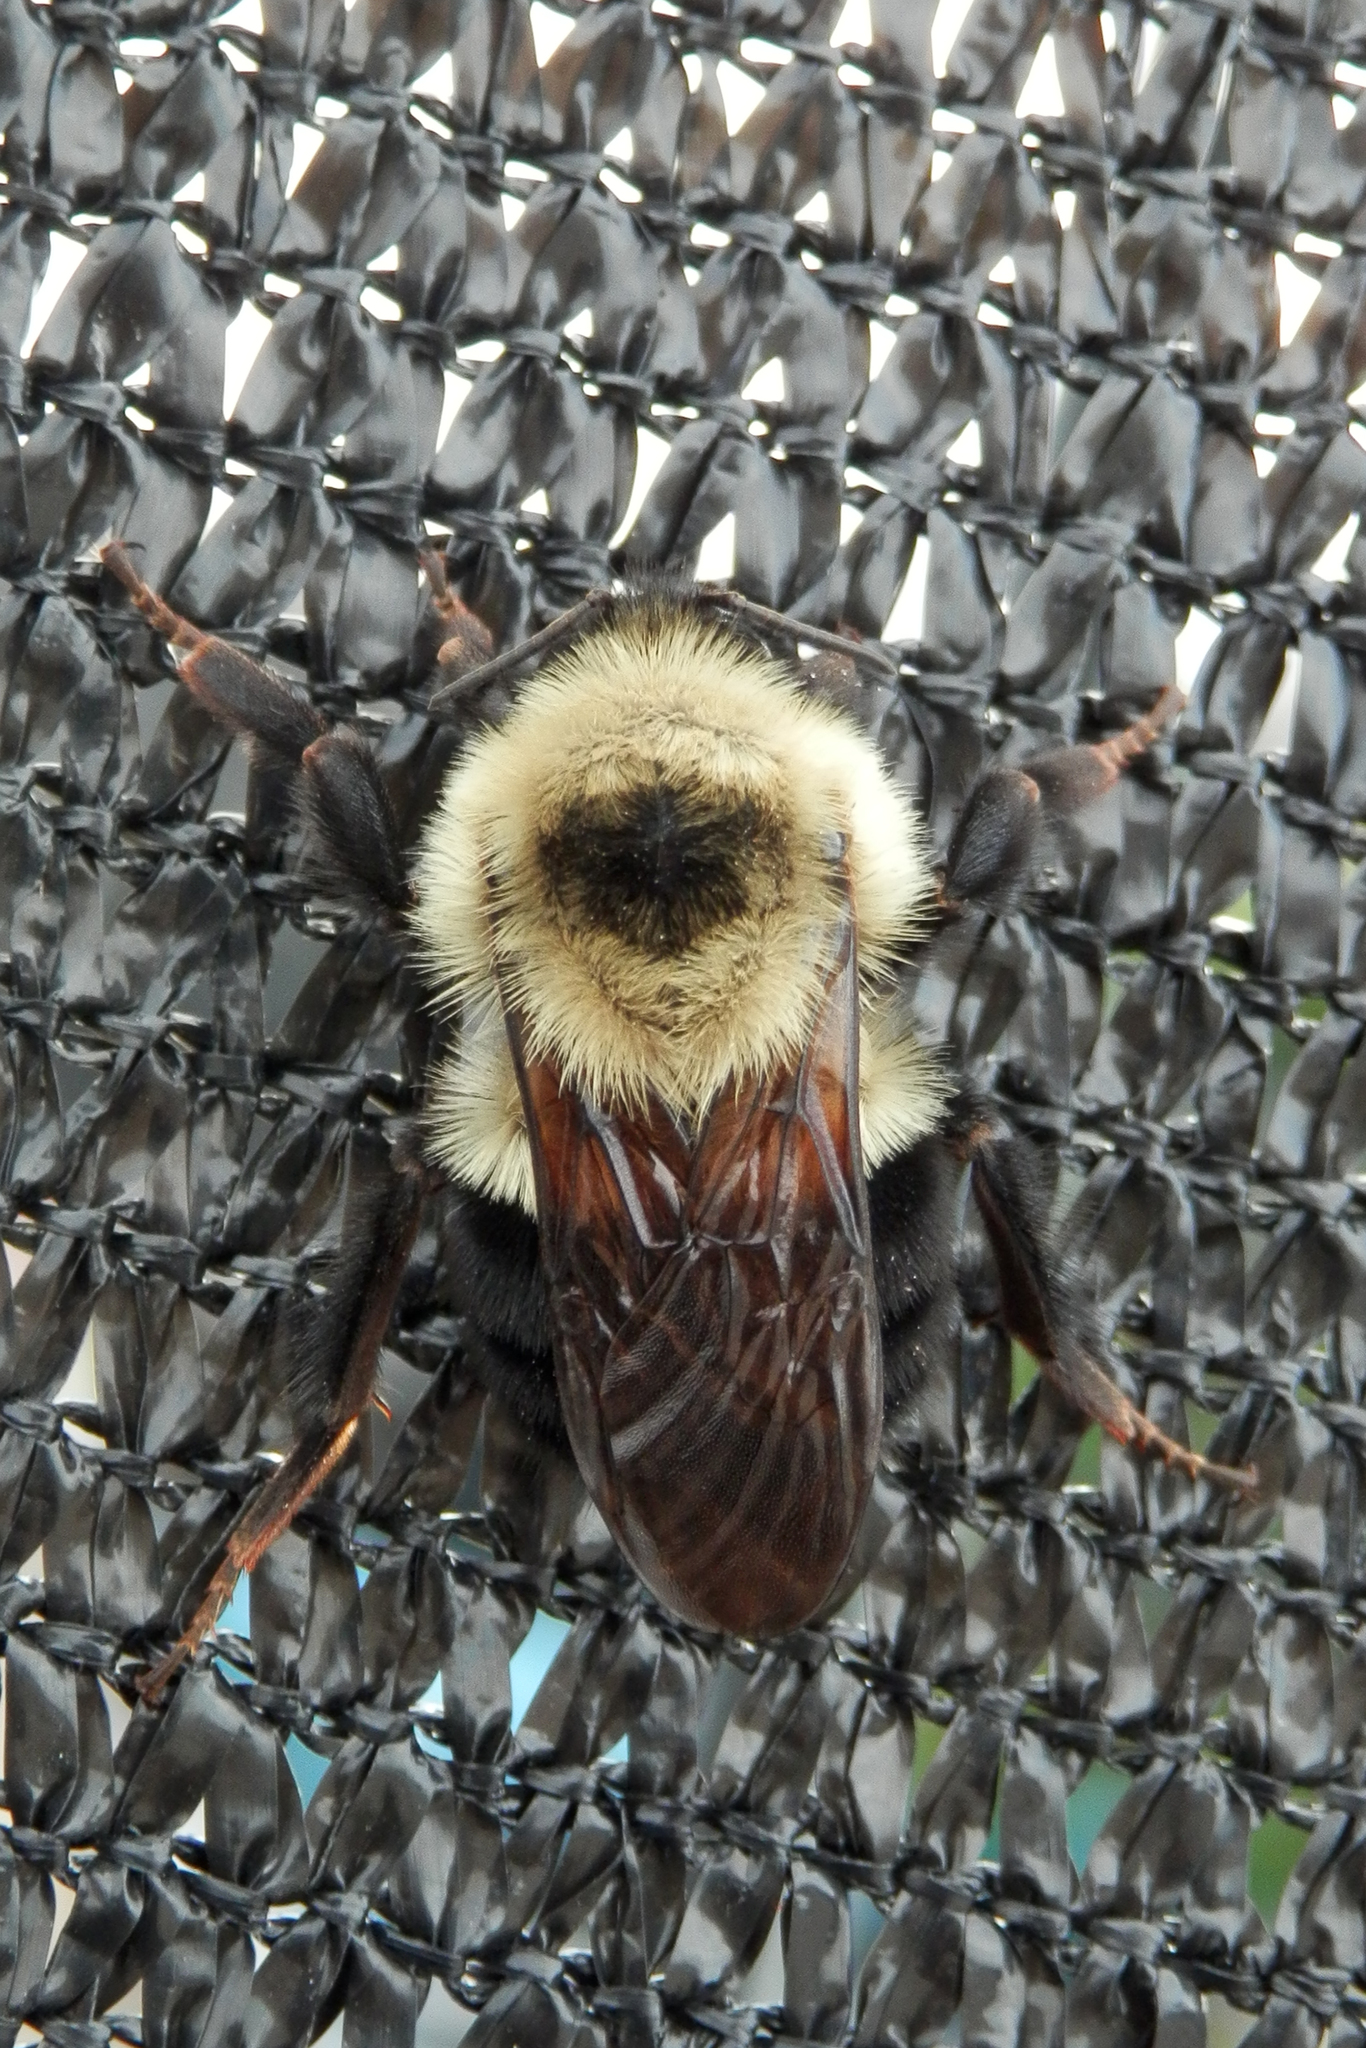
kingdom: Animalia
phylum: Arthropoda
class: Insecta
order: Hymenoptera
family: Apidae
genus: Bombus
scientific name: Bombus bimaculatus
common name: Two-spotted bumble bee
